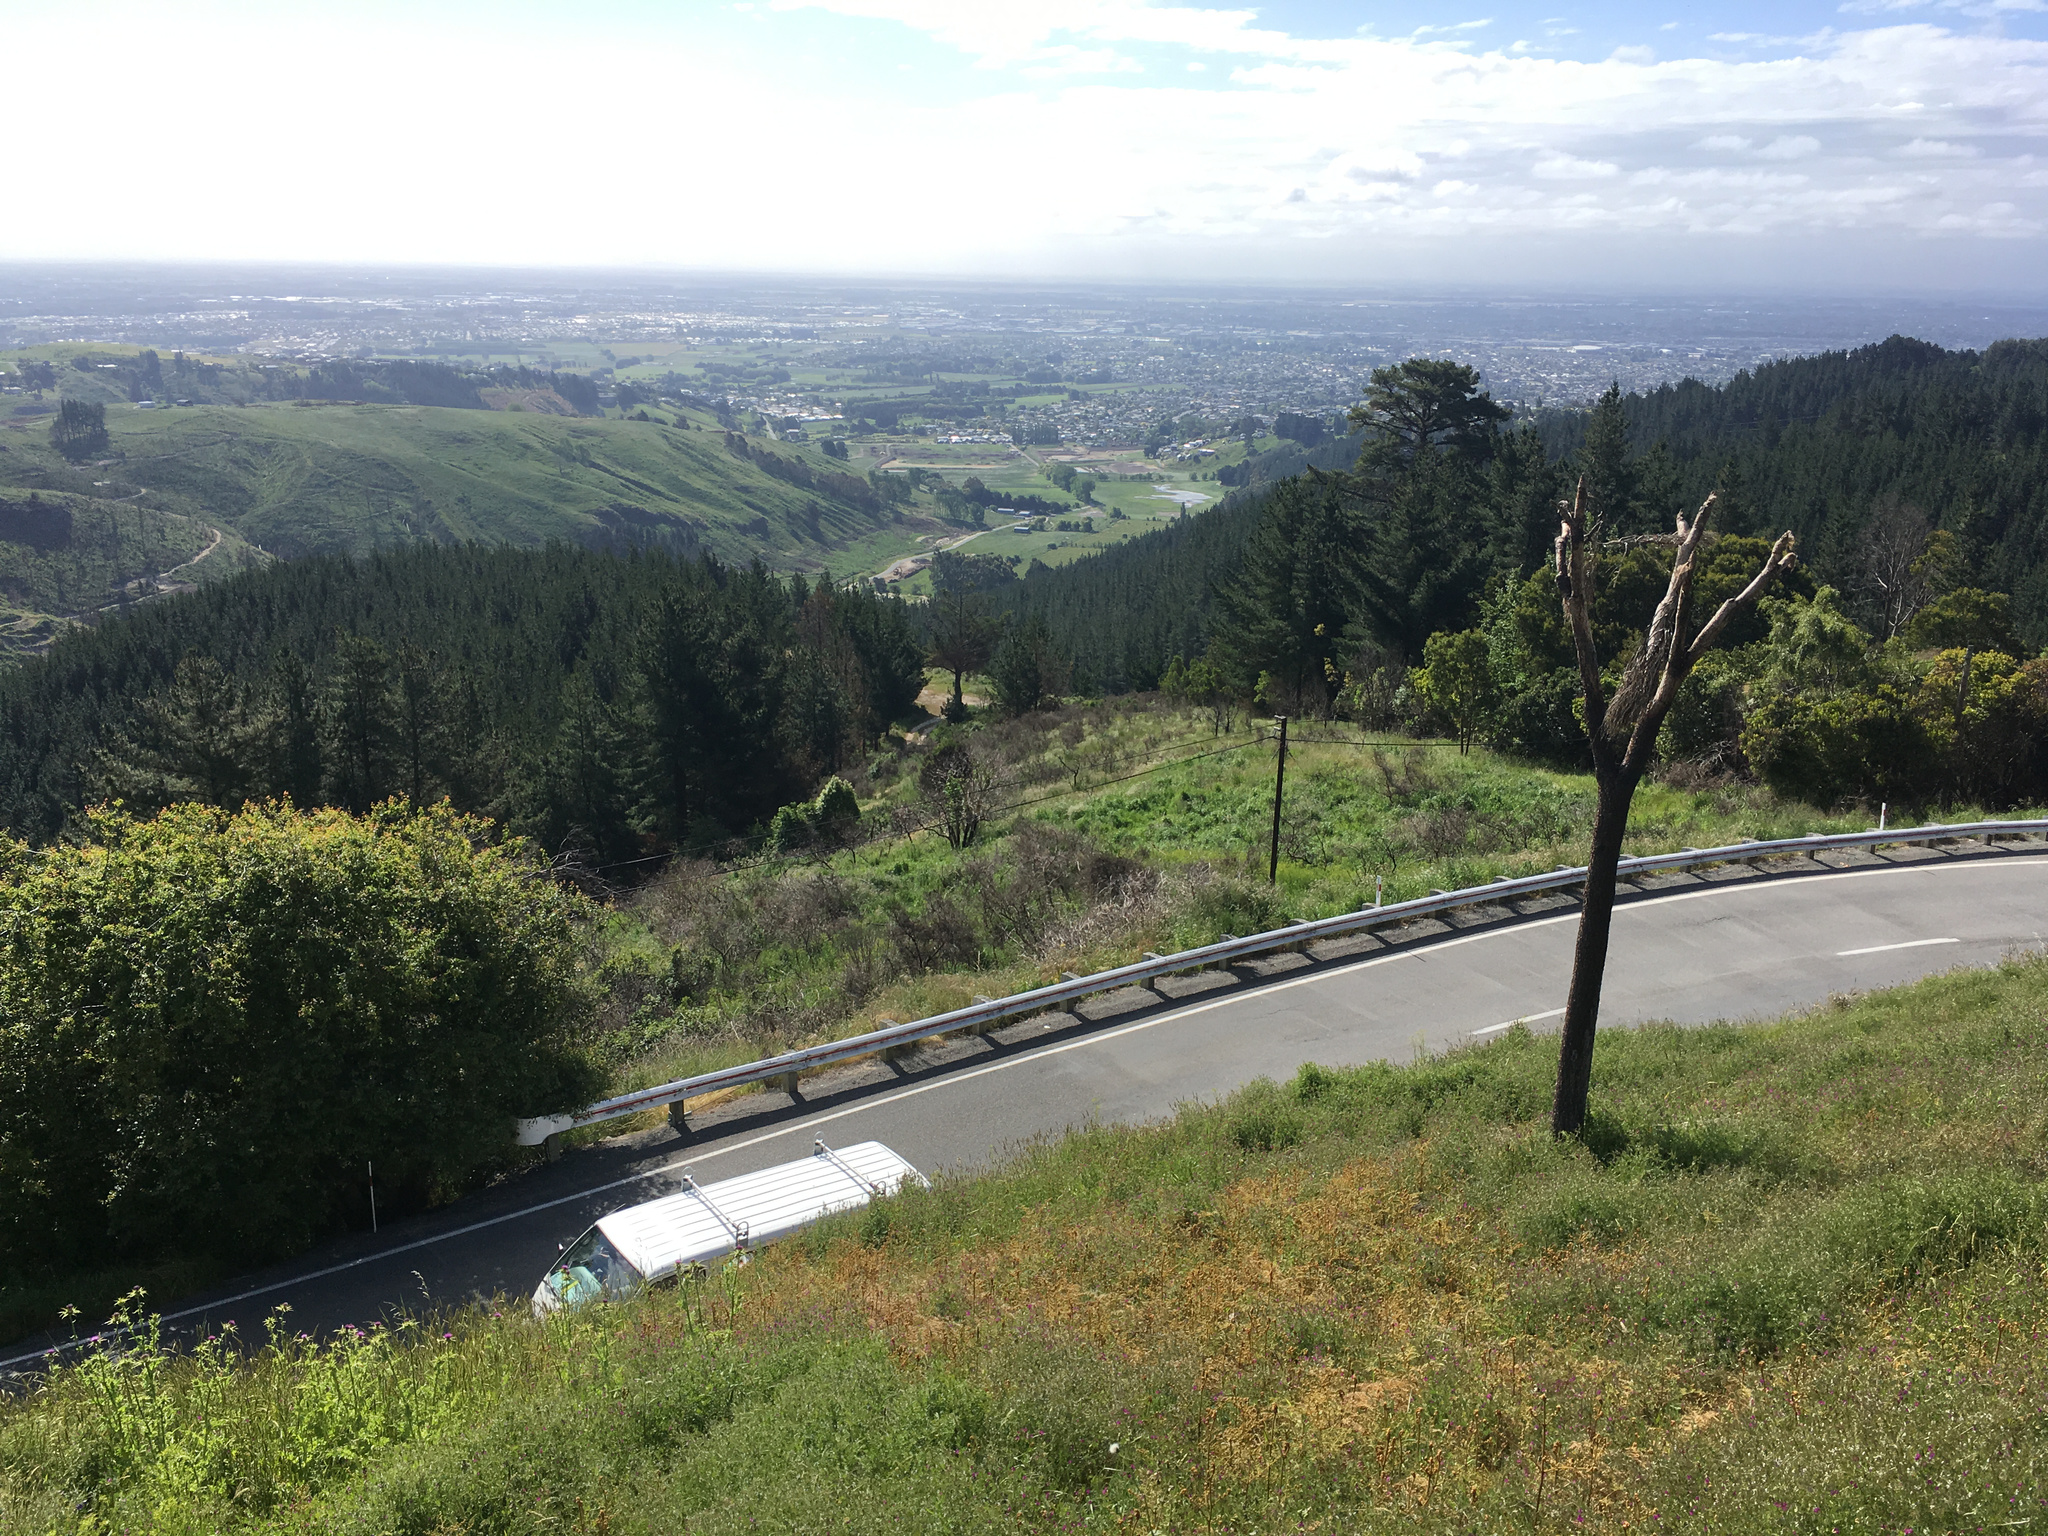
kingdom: Plantae
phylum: Tracheophyta
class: Liliopsida
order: Asparagales
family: Asparagaceae
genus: Cordyline
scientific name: Cordyline australis
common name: Cabbage-palm
